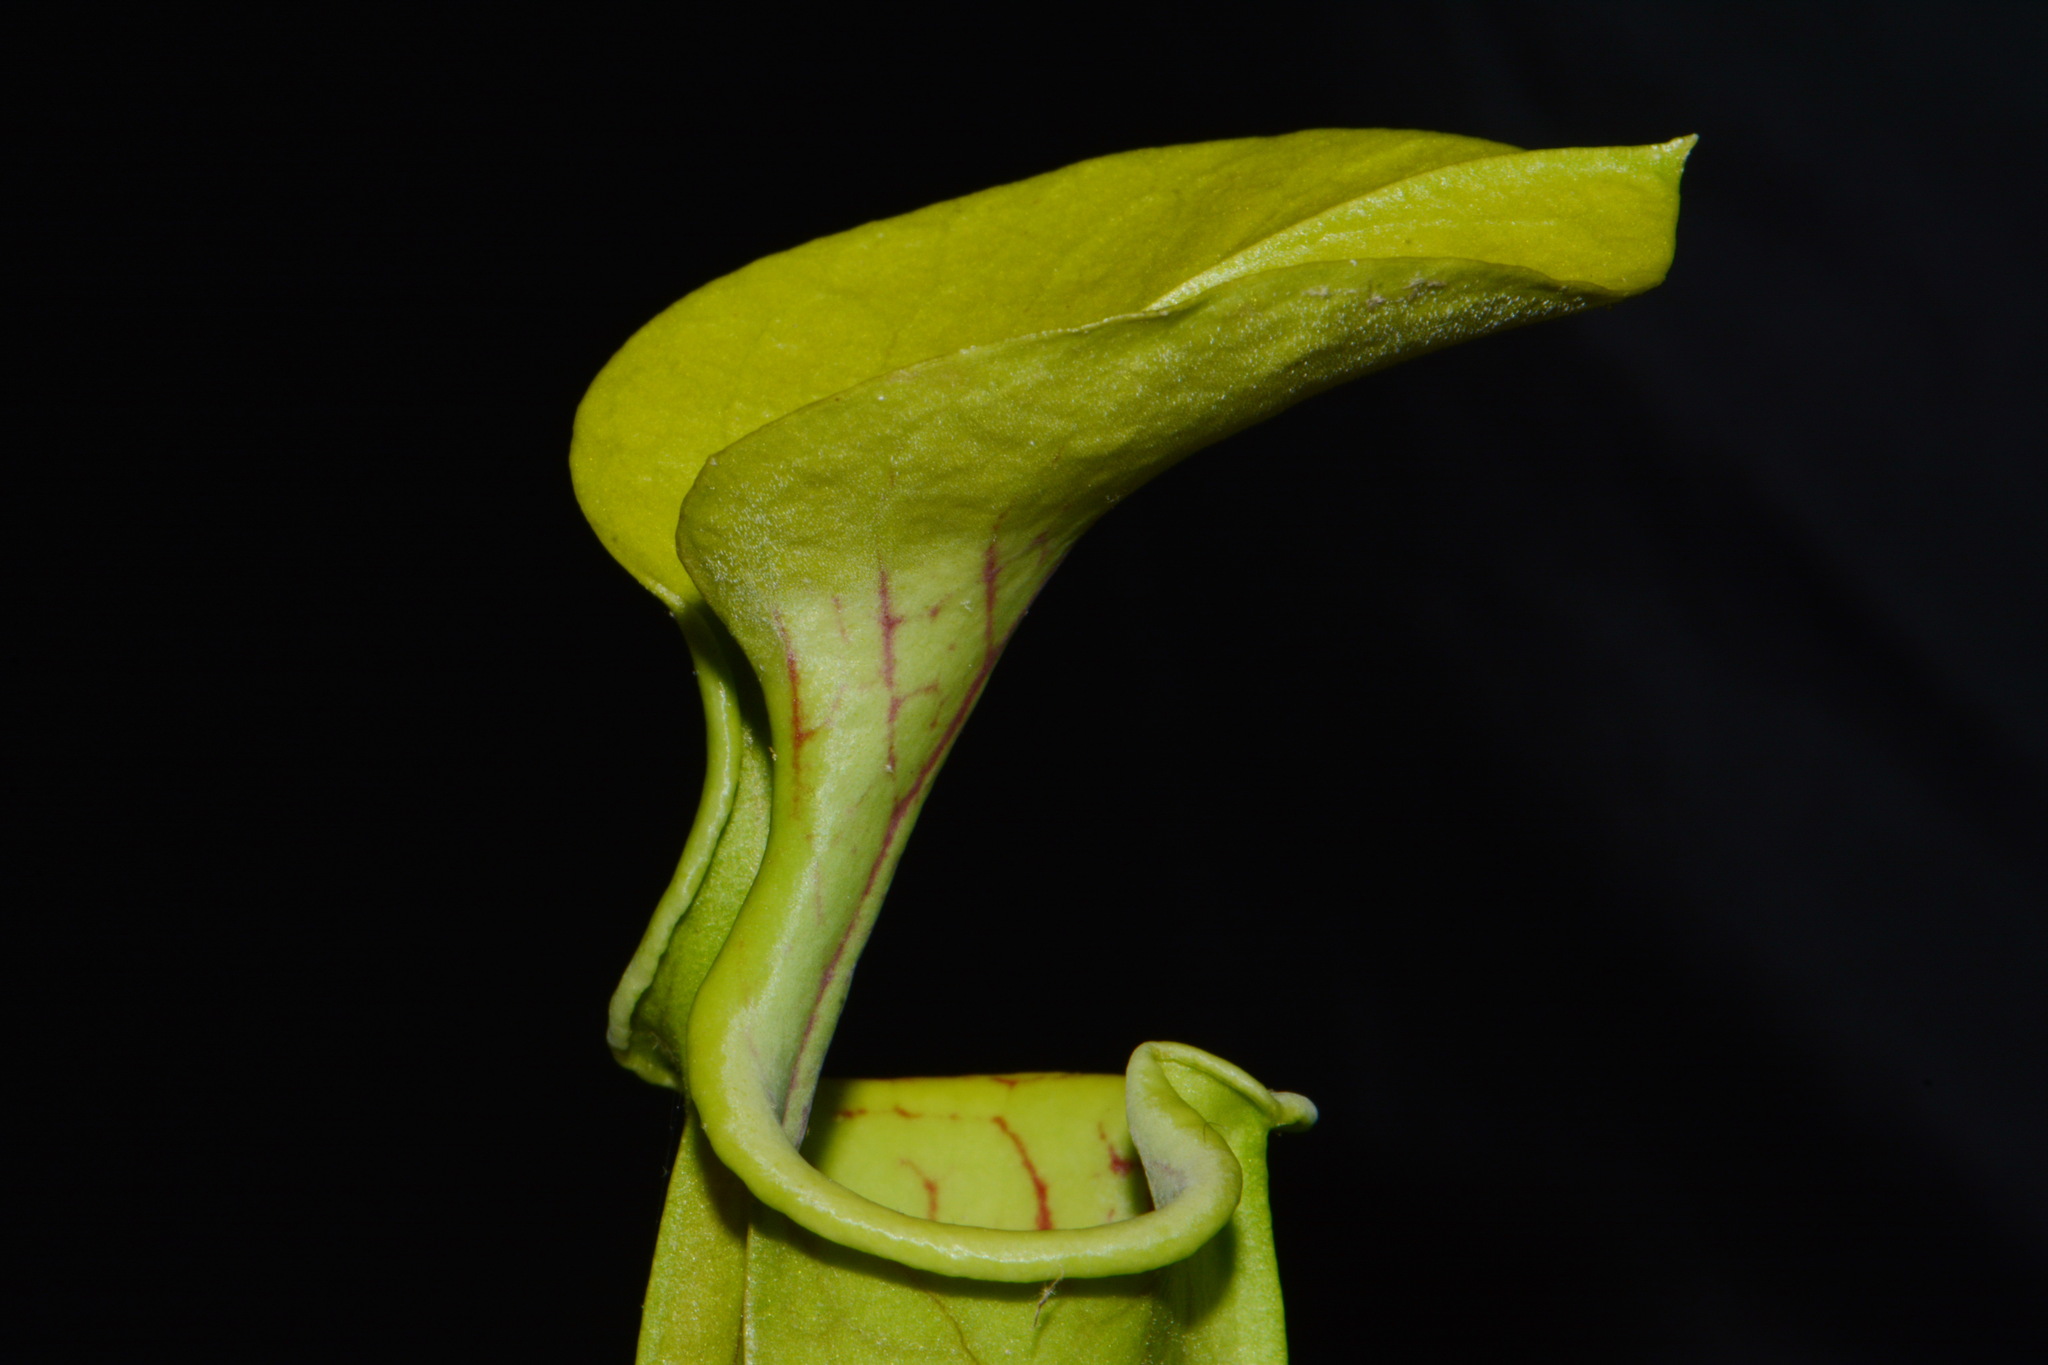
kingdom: Plantae
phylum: Tracheophyta
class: Magnoliopsida
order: Ericales
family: Sarraceniaceae
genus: Sarracenia
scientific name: Sarracenia oreophila
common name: Green pitcherplant
